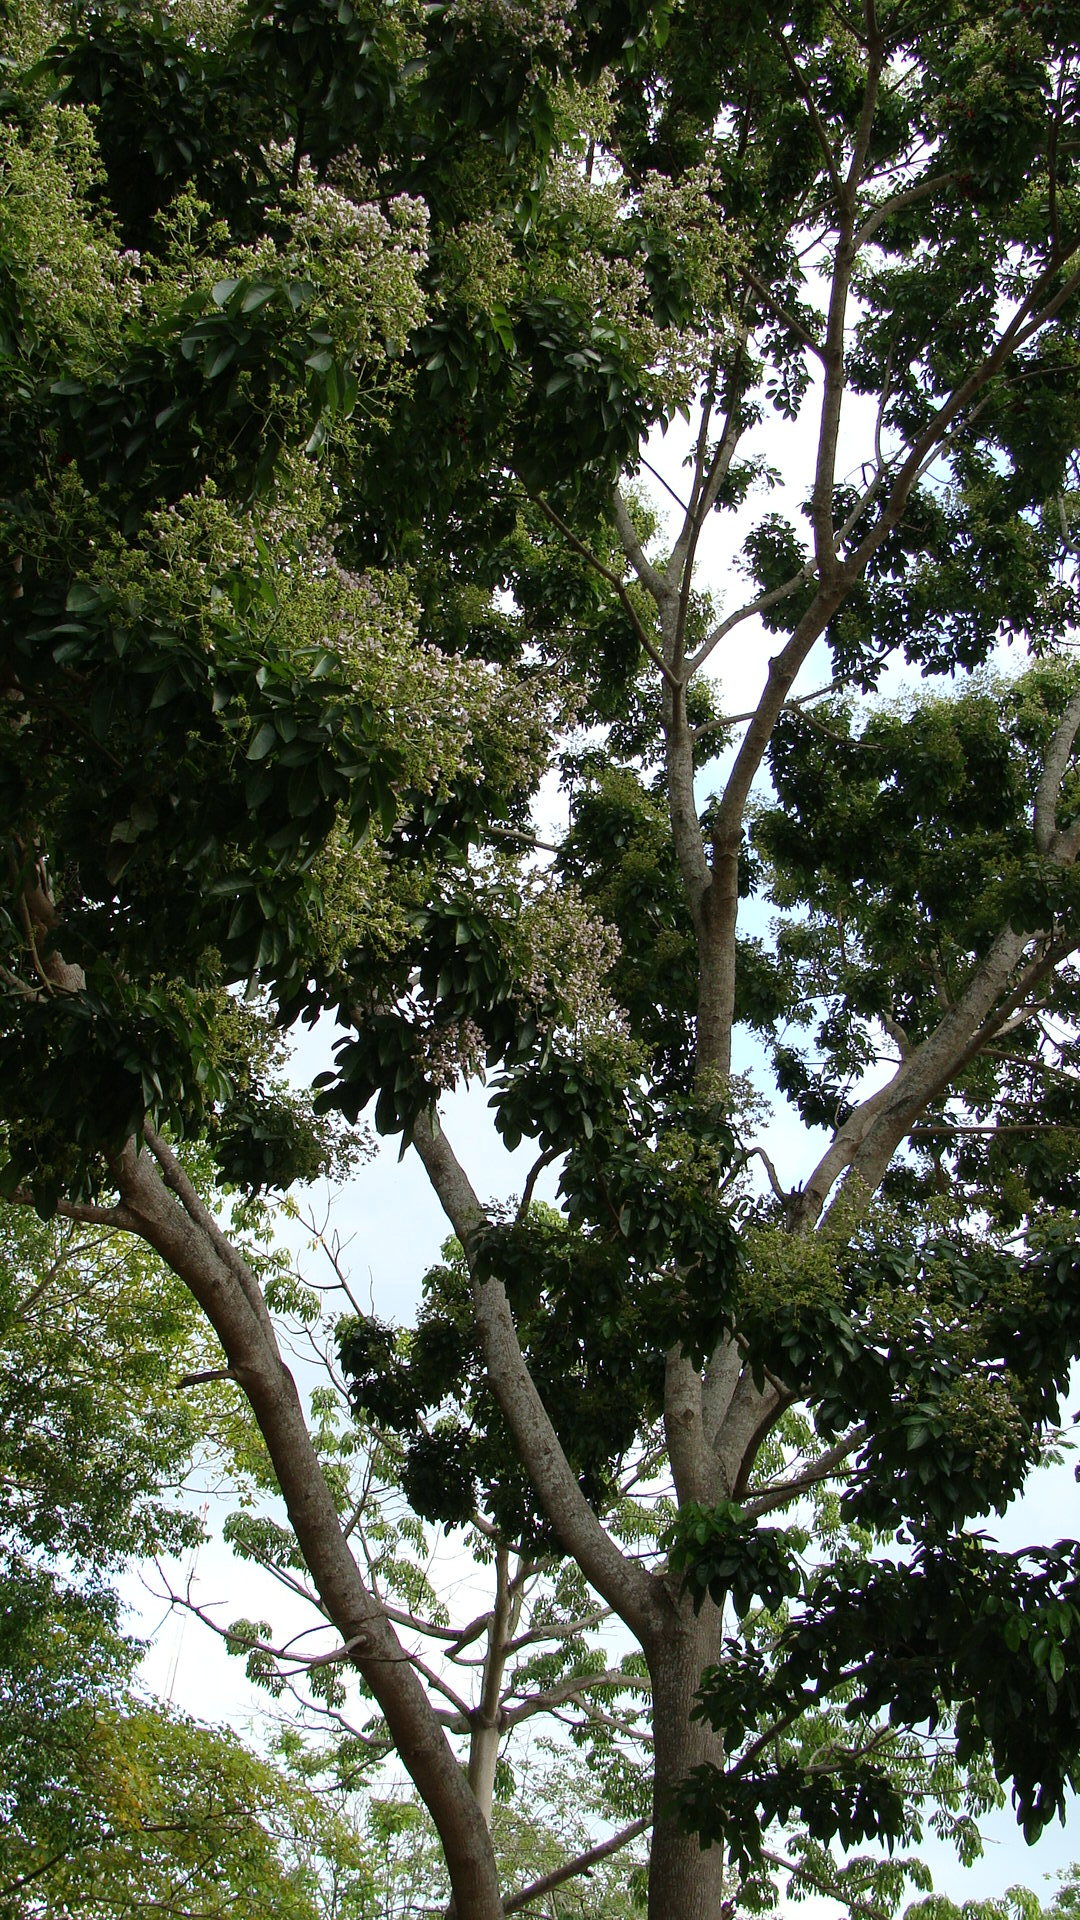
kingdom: Plantae
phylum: Tracheophyta
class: Magnoliopsida
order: Fabales
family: Fabaceae
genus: Ormosia
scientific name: Ormosia macrocalyx
